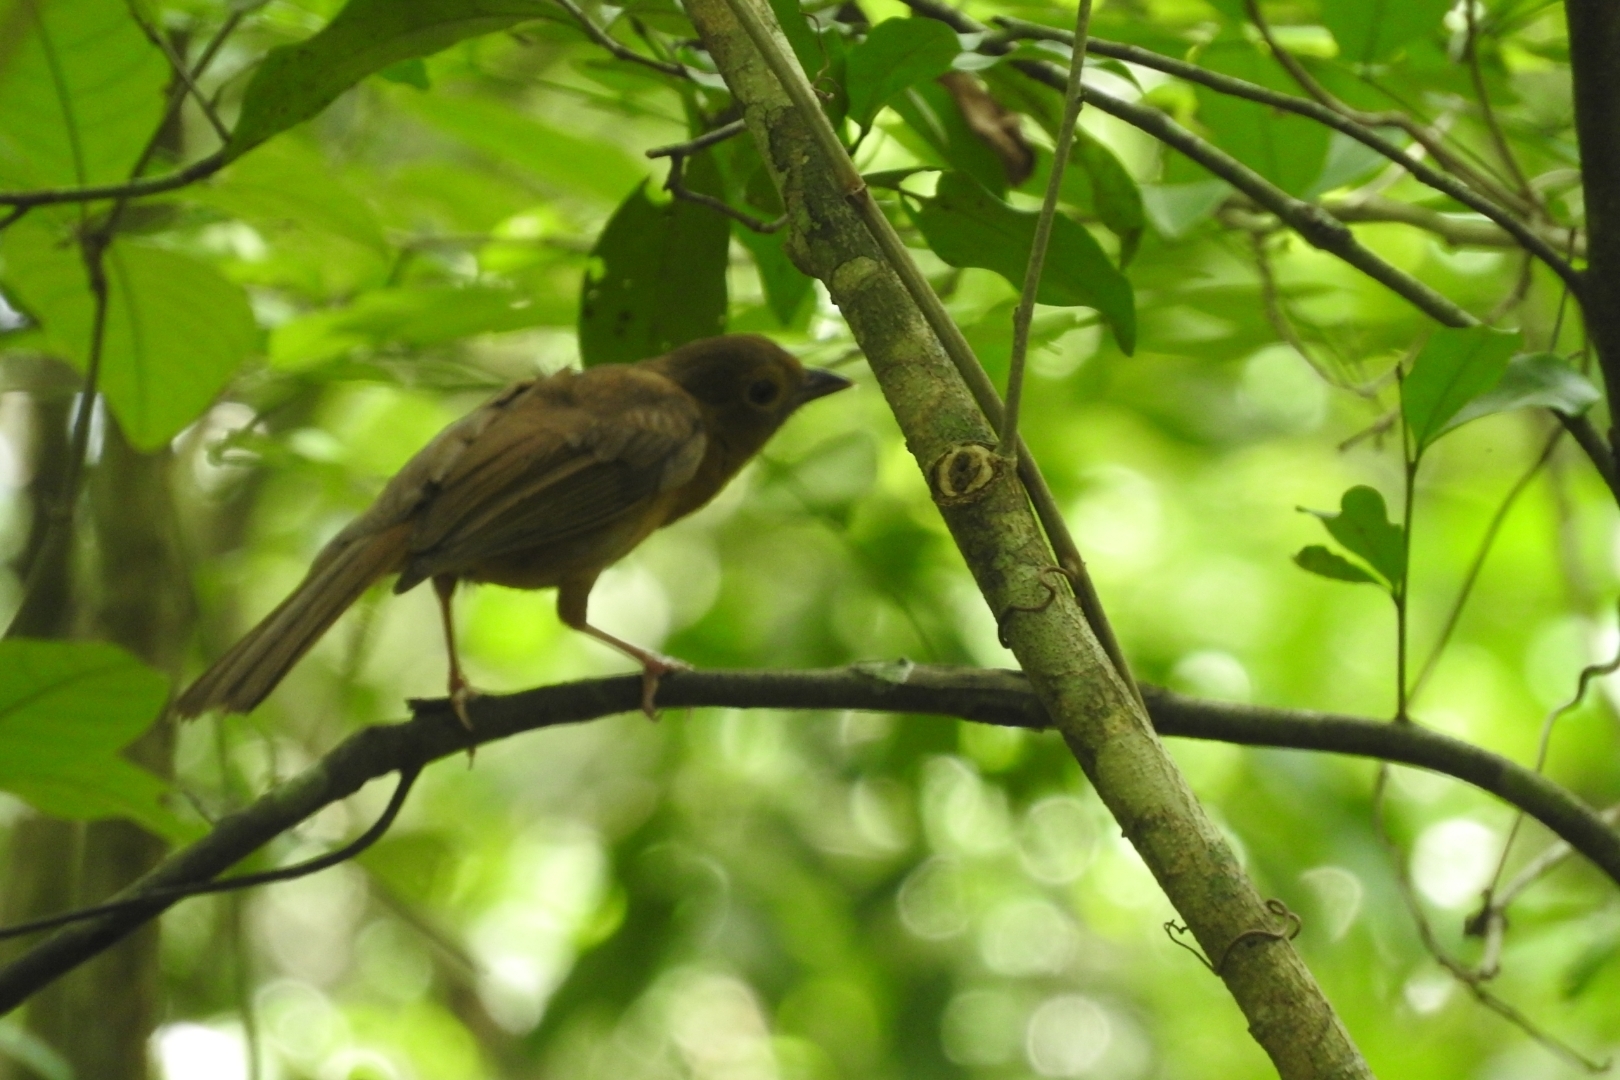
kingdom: Animalia
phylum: Chordata
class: Aves
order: Passeriformes
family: Cardinalidae
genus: Habia
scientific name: Habia fuscicauda
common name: Red-throated ant-tanager
